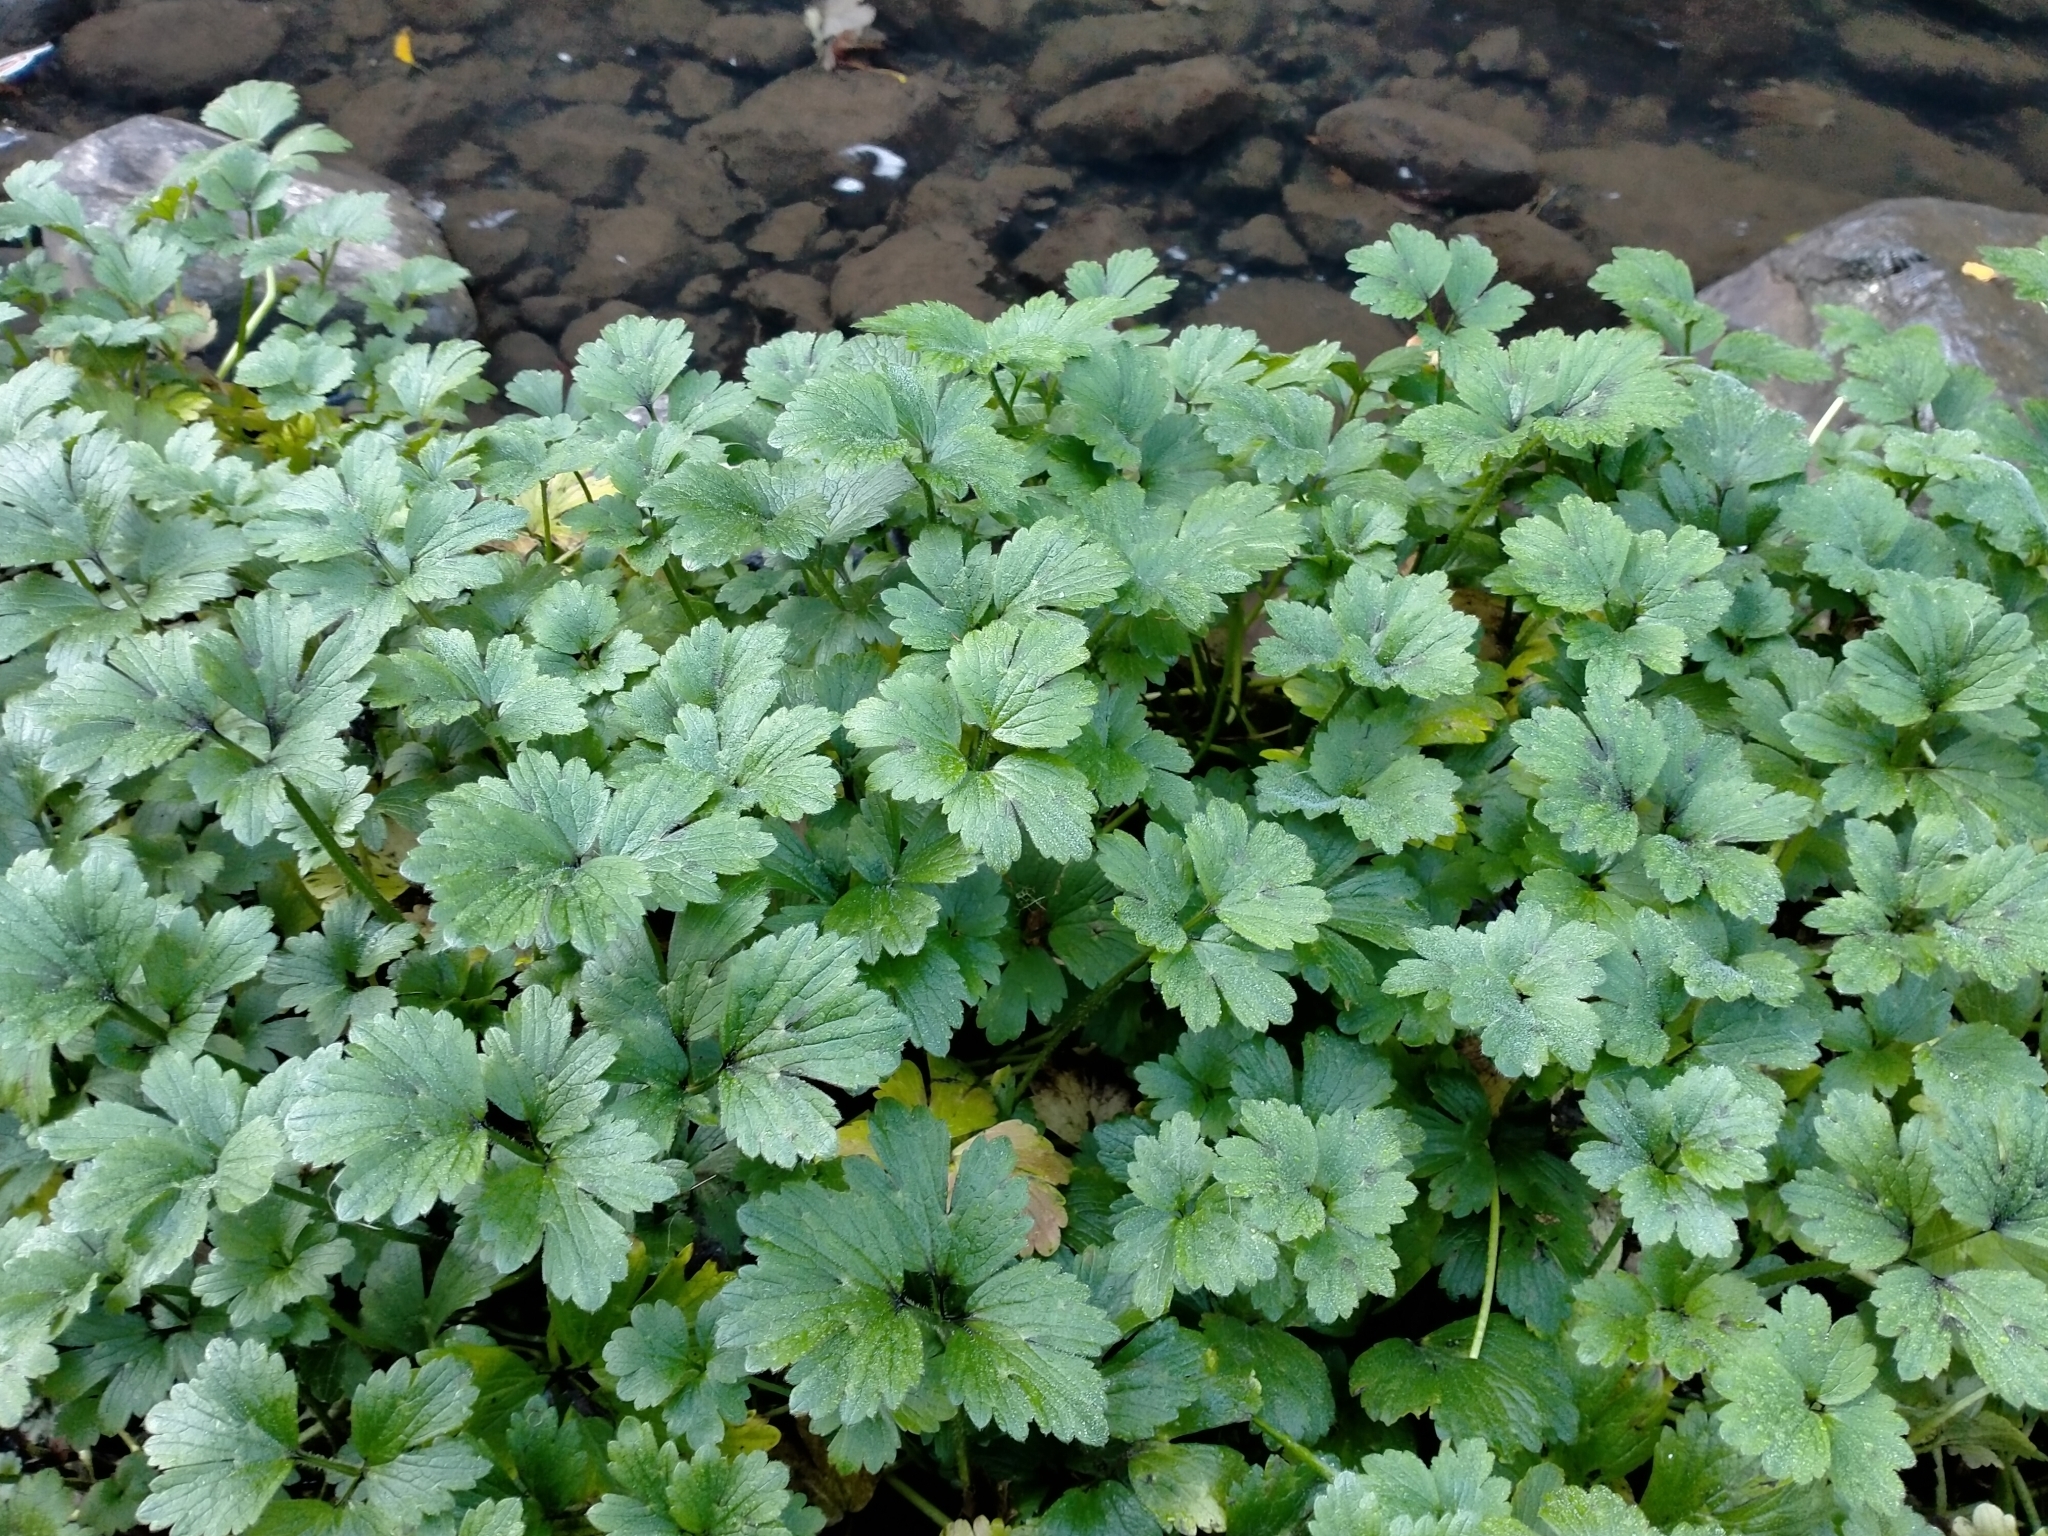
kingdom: Plantae
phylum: Tracheophyta
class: Magnoliopsida
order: Ranunculales
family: Ranunculaceae
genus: Ranunculus
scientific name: Ranunculus repens
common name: Creeping buttercup
